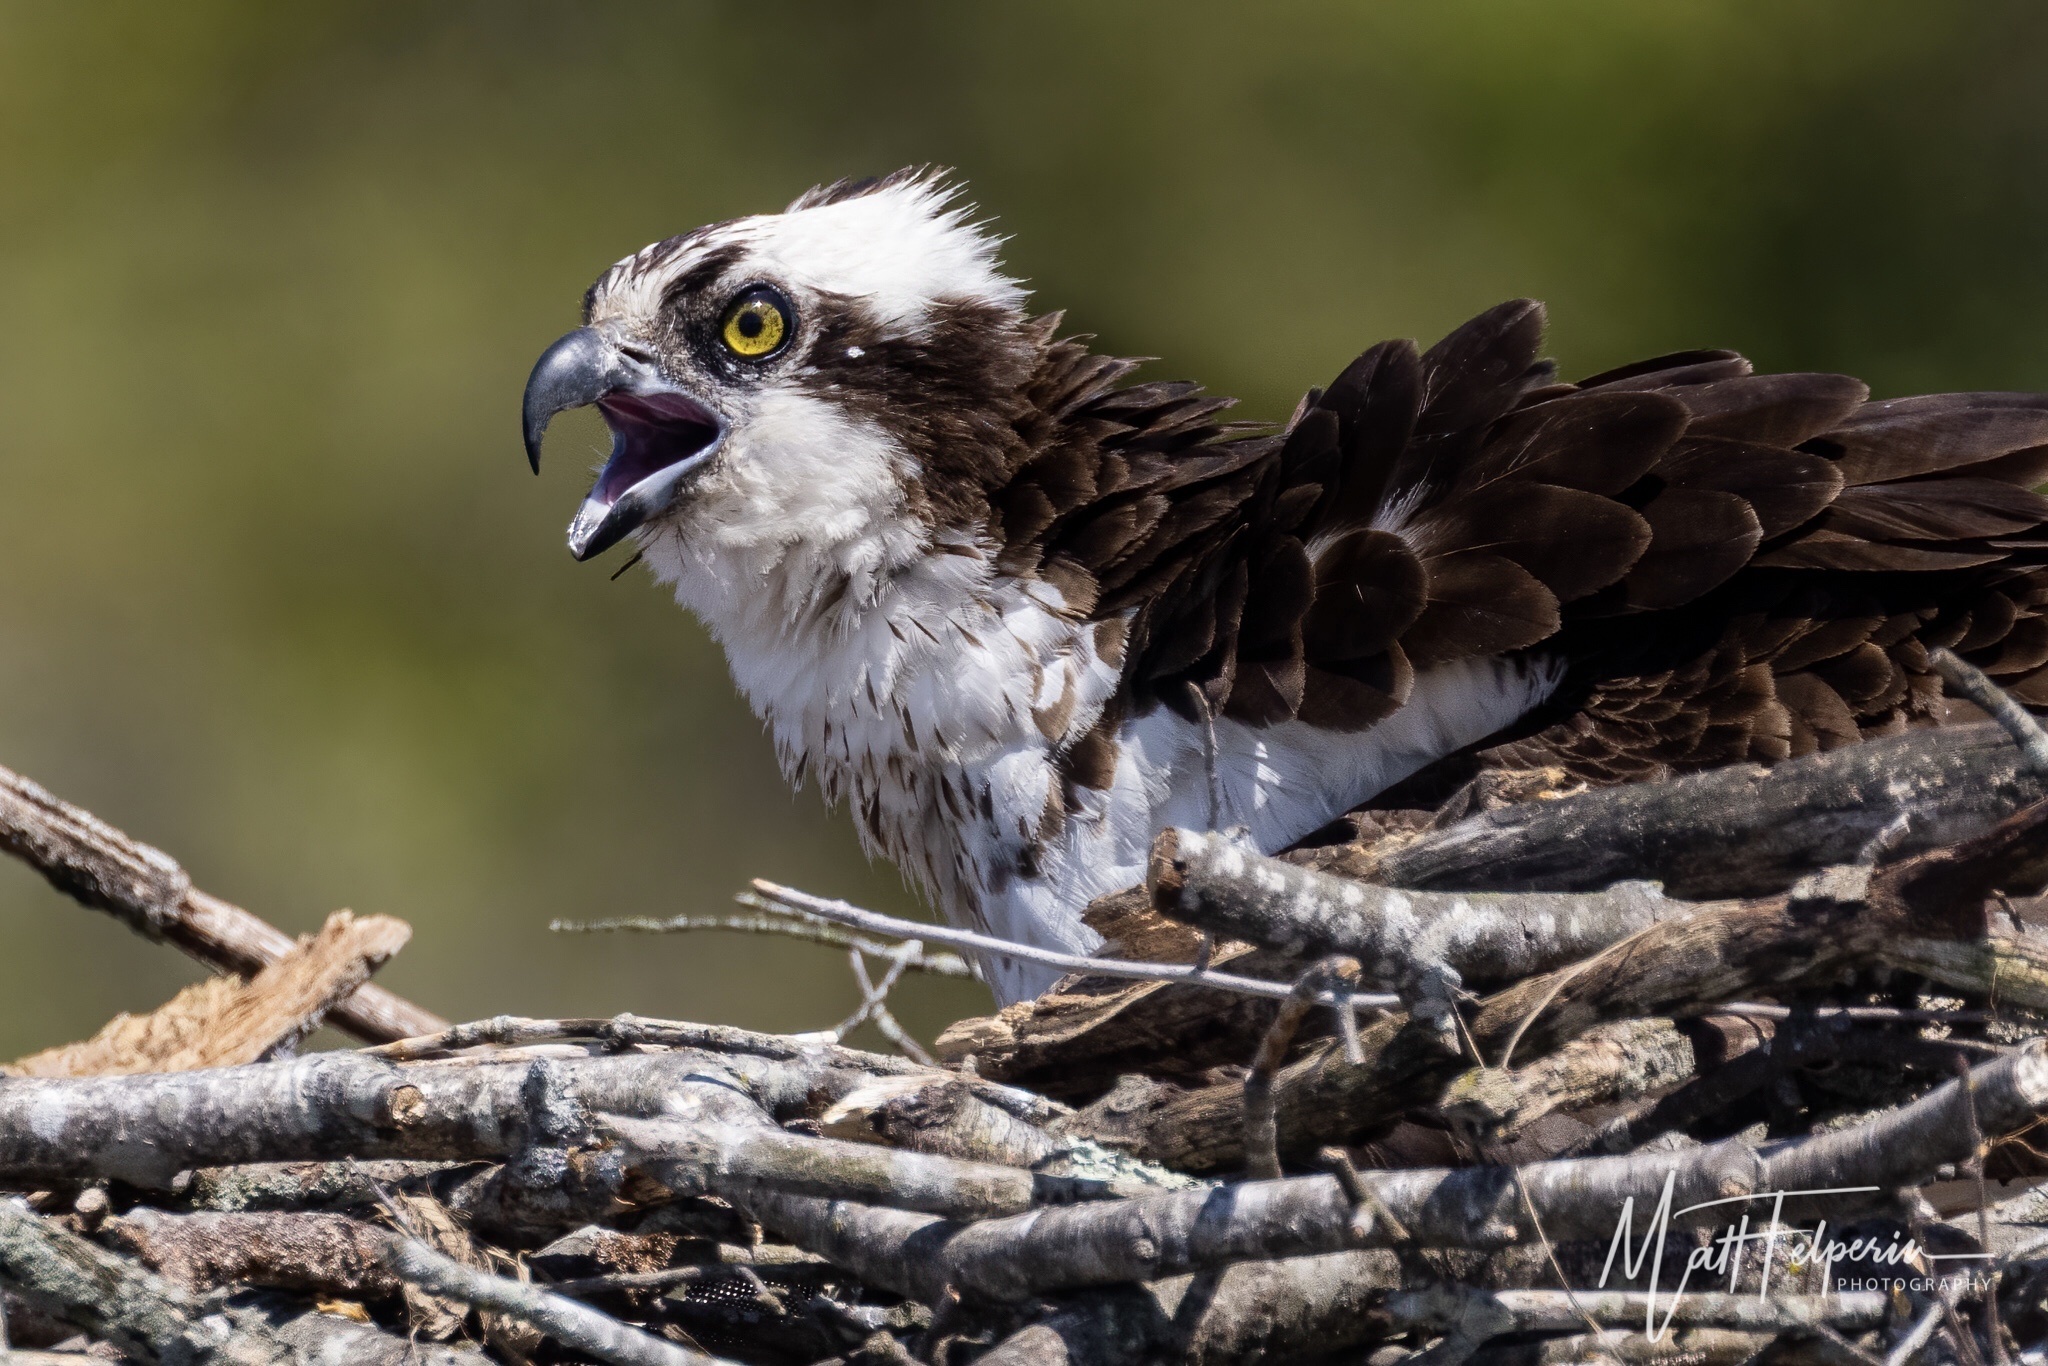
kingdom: Animalia
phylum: Chordata
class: Aves
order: Accipitriformes
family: Pandionidae
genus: Pandion
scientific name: Pandion haliaetus
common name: Osprey
